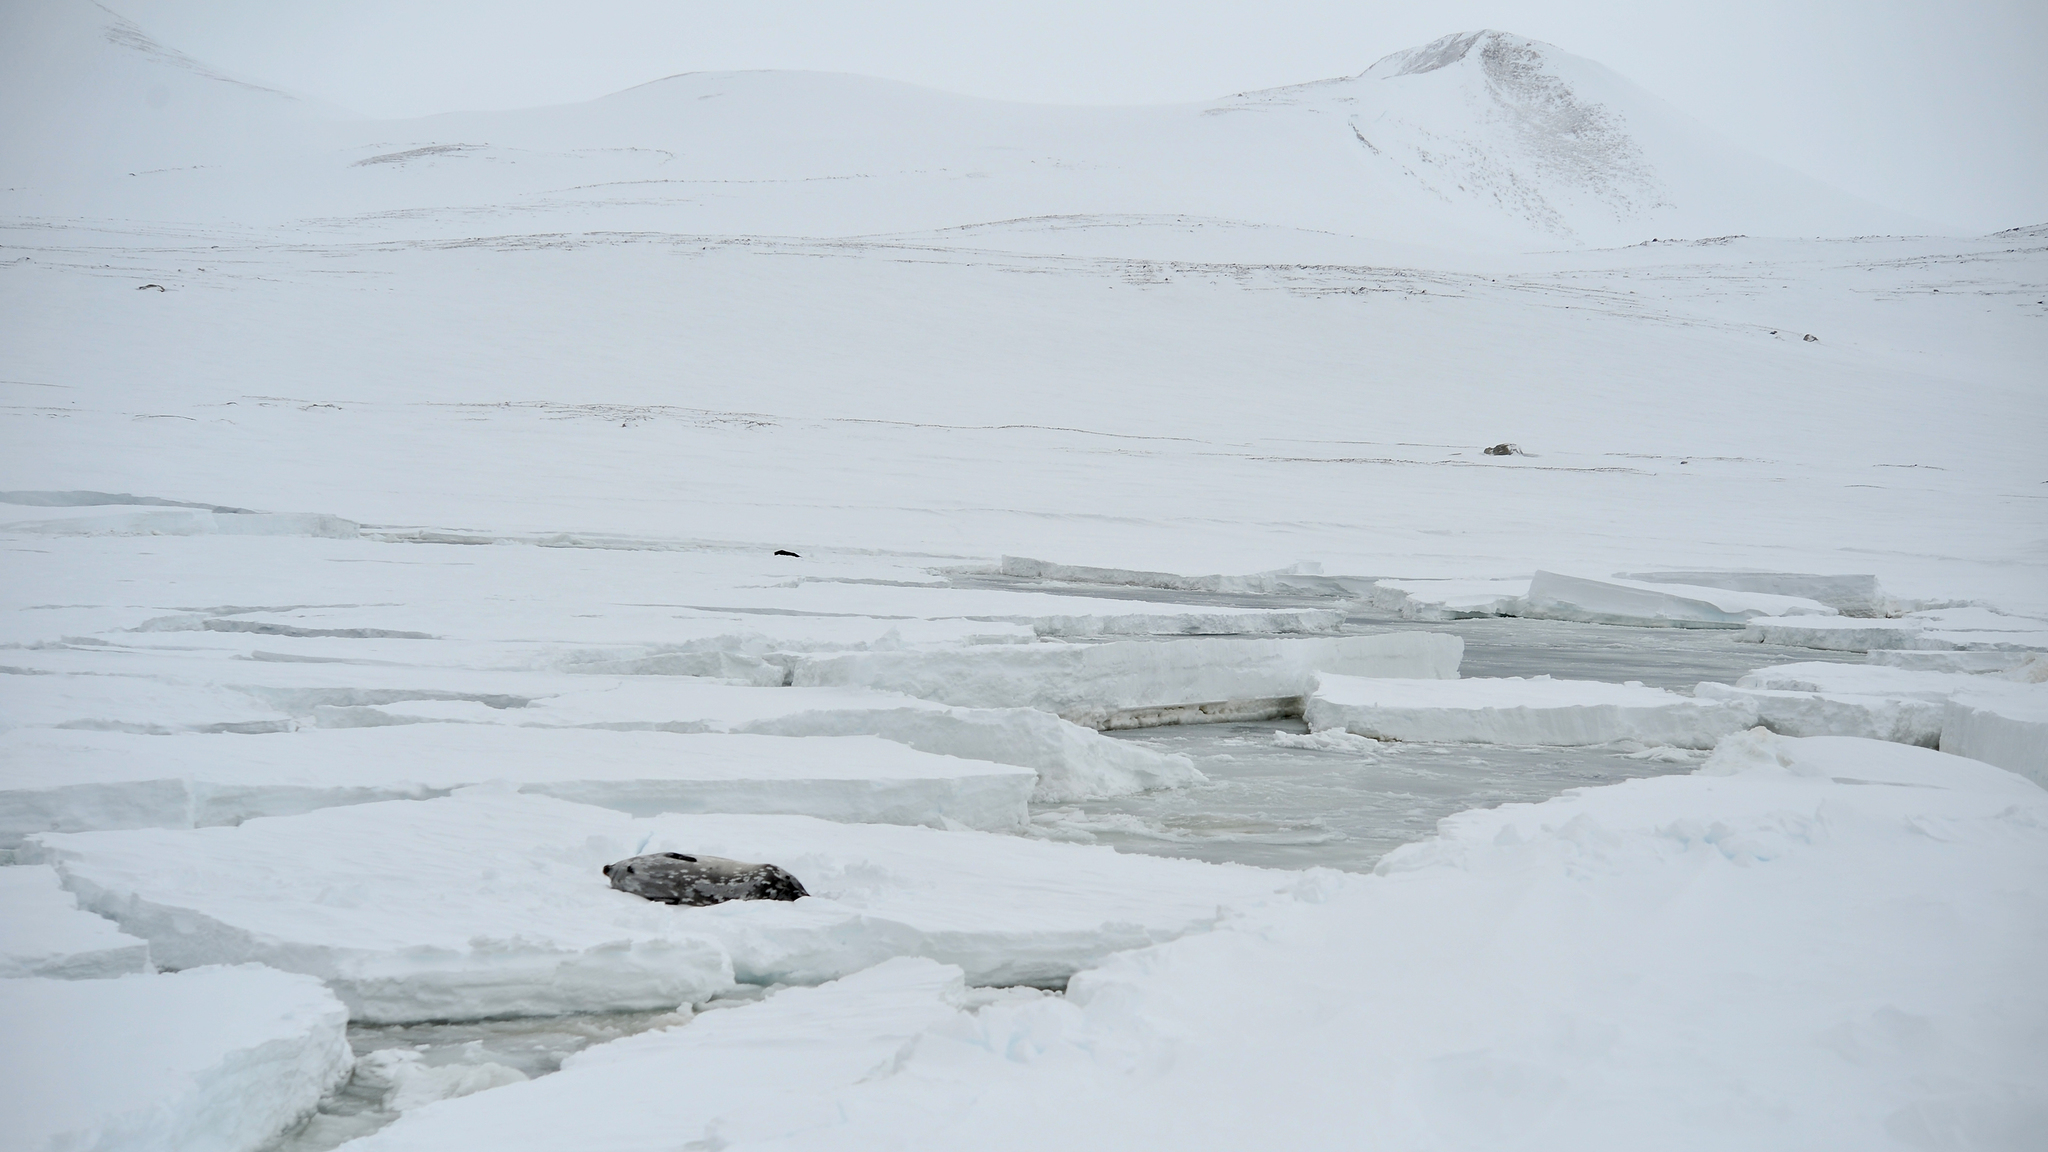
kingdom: Animalia
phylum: Chordata
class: Mammalia
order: Carnivora
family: Phocidae
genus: Leptonychotes
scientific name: Leptonychotes weddellii
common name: Weddell seal
